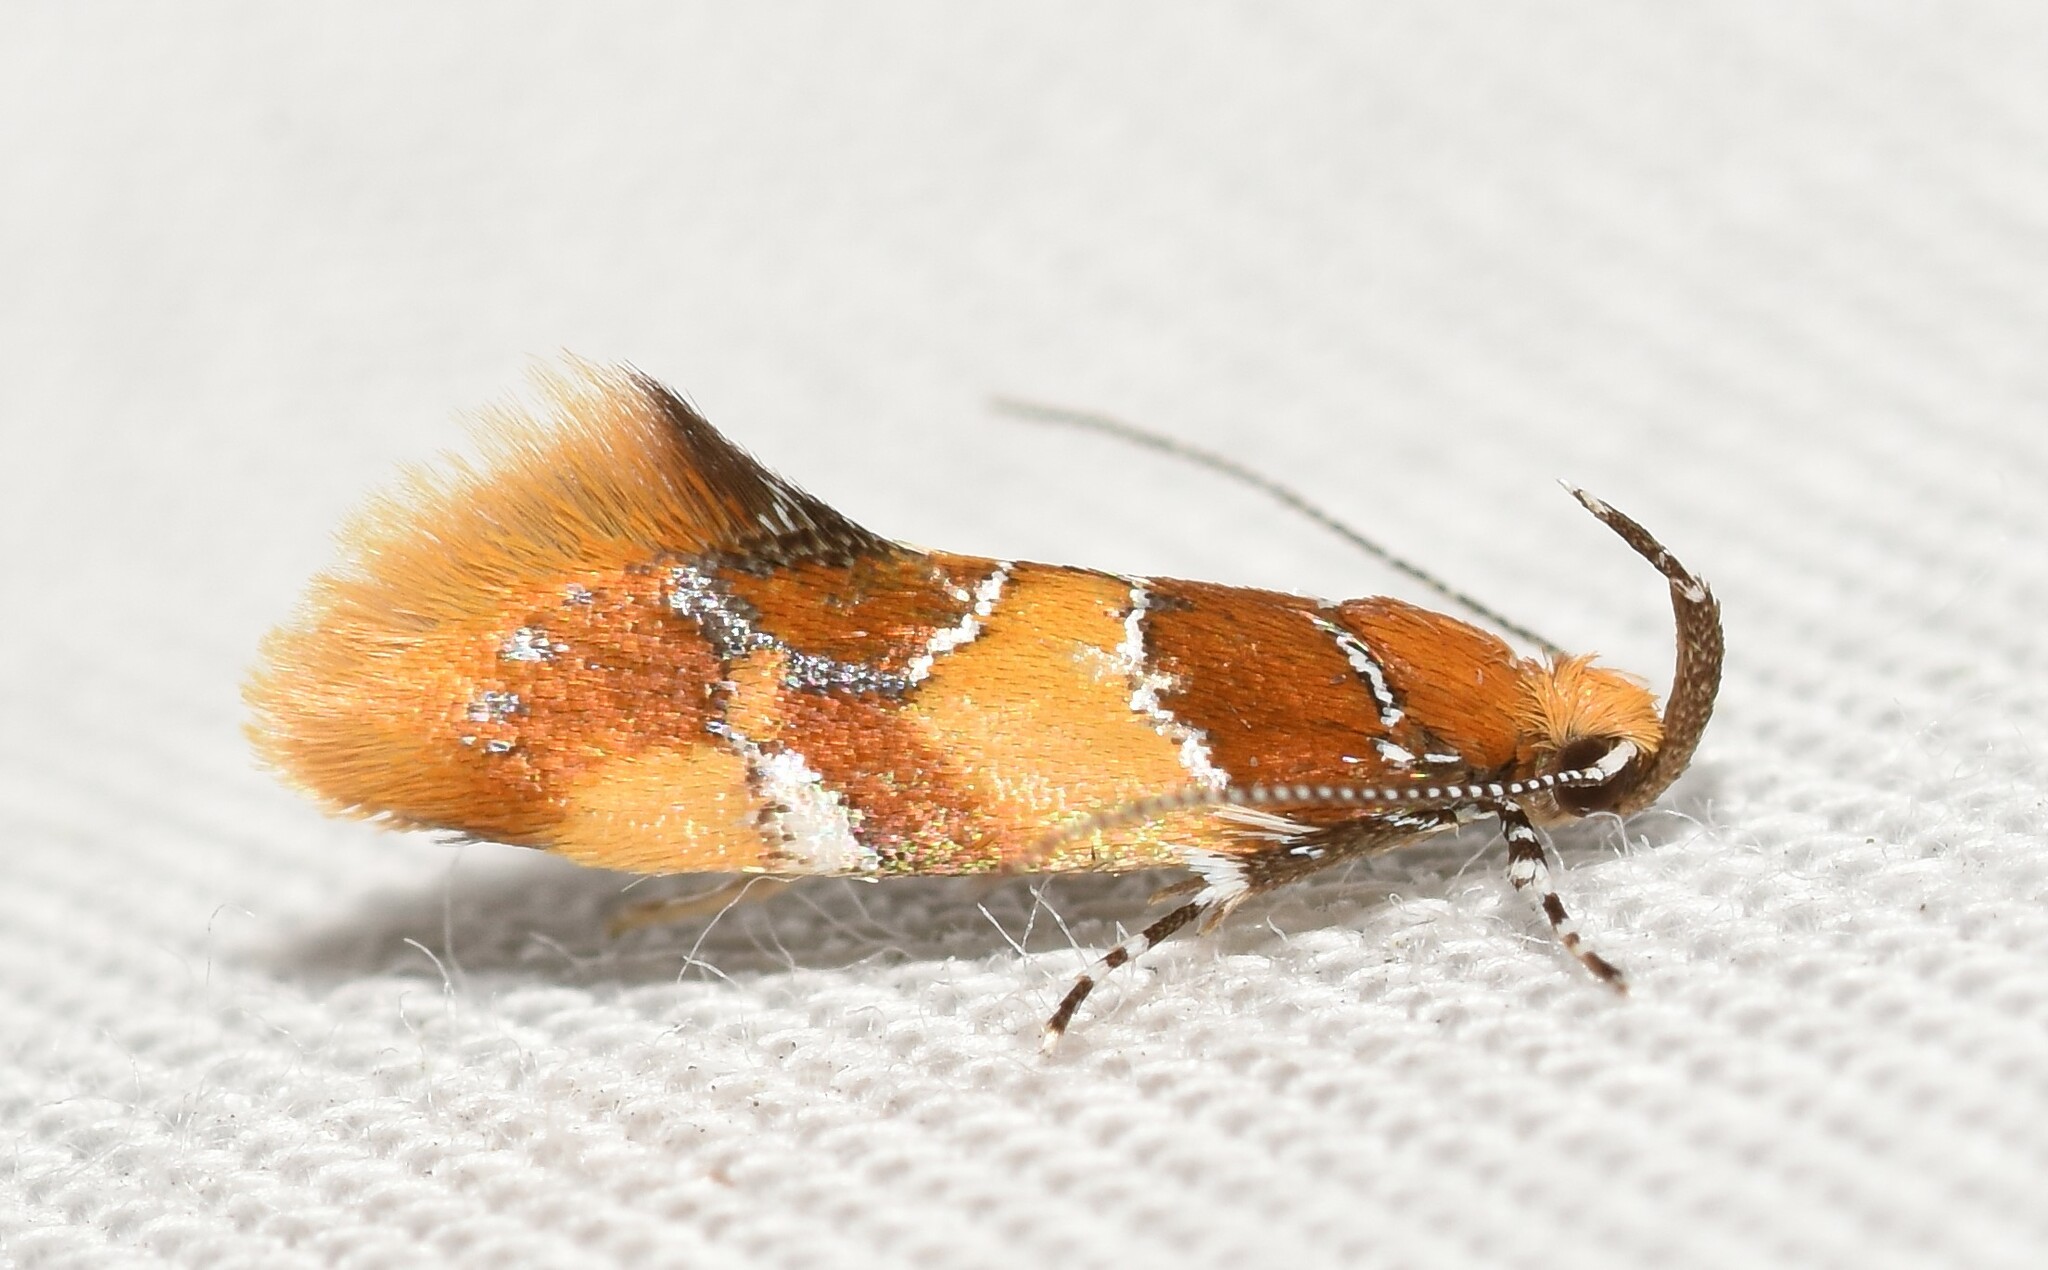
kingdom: Animalia
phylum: Arthropoda
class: Insecta
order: Lepidoptera
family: Oecophoridae
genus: Callima
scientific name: Callima argenticinctella
